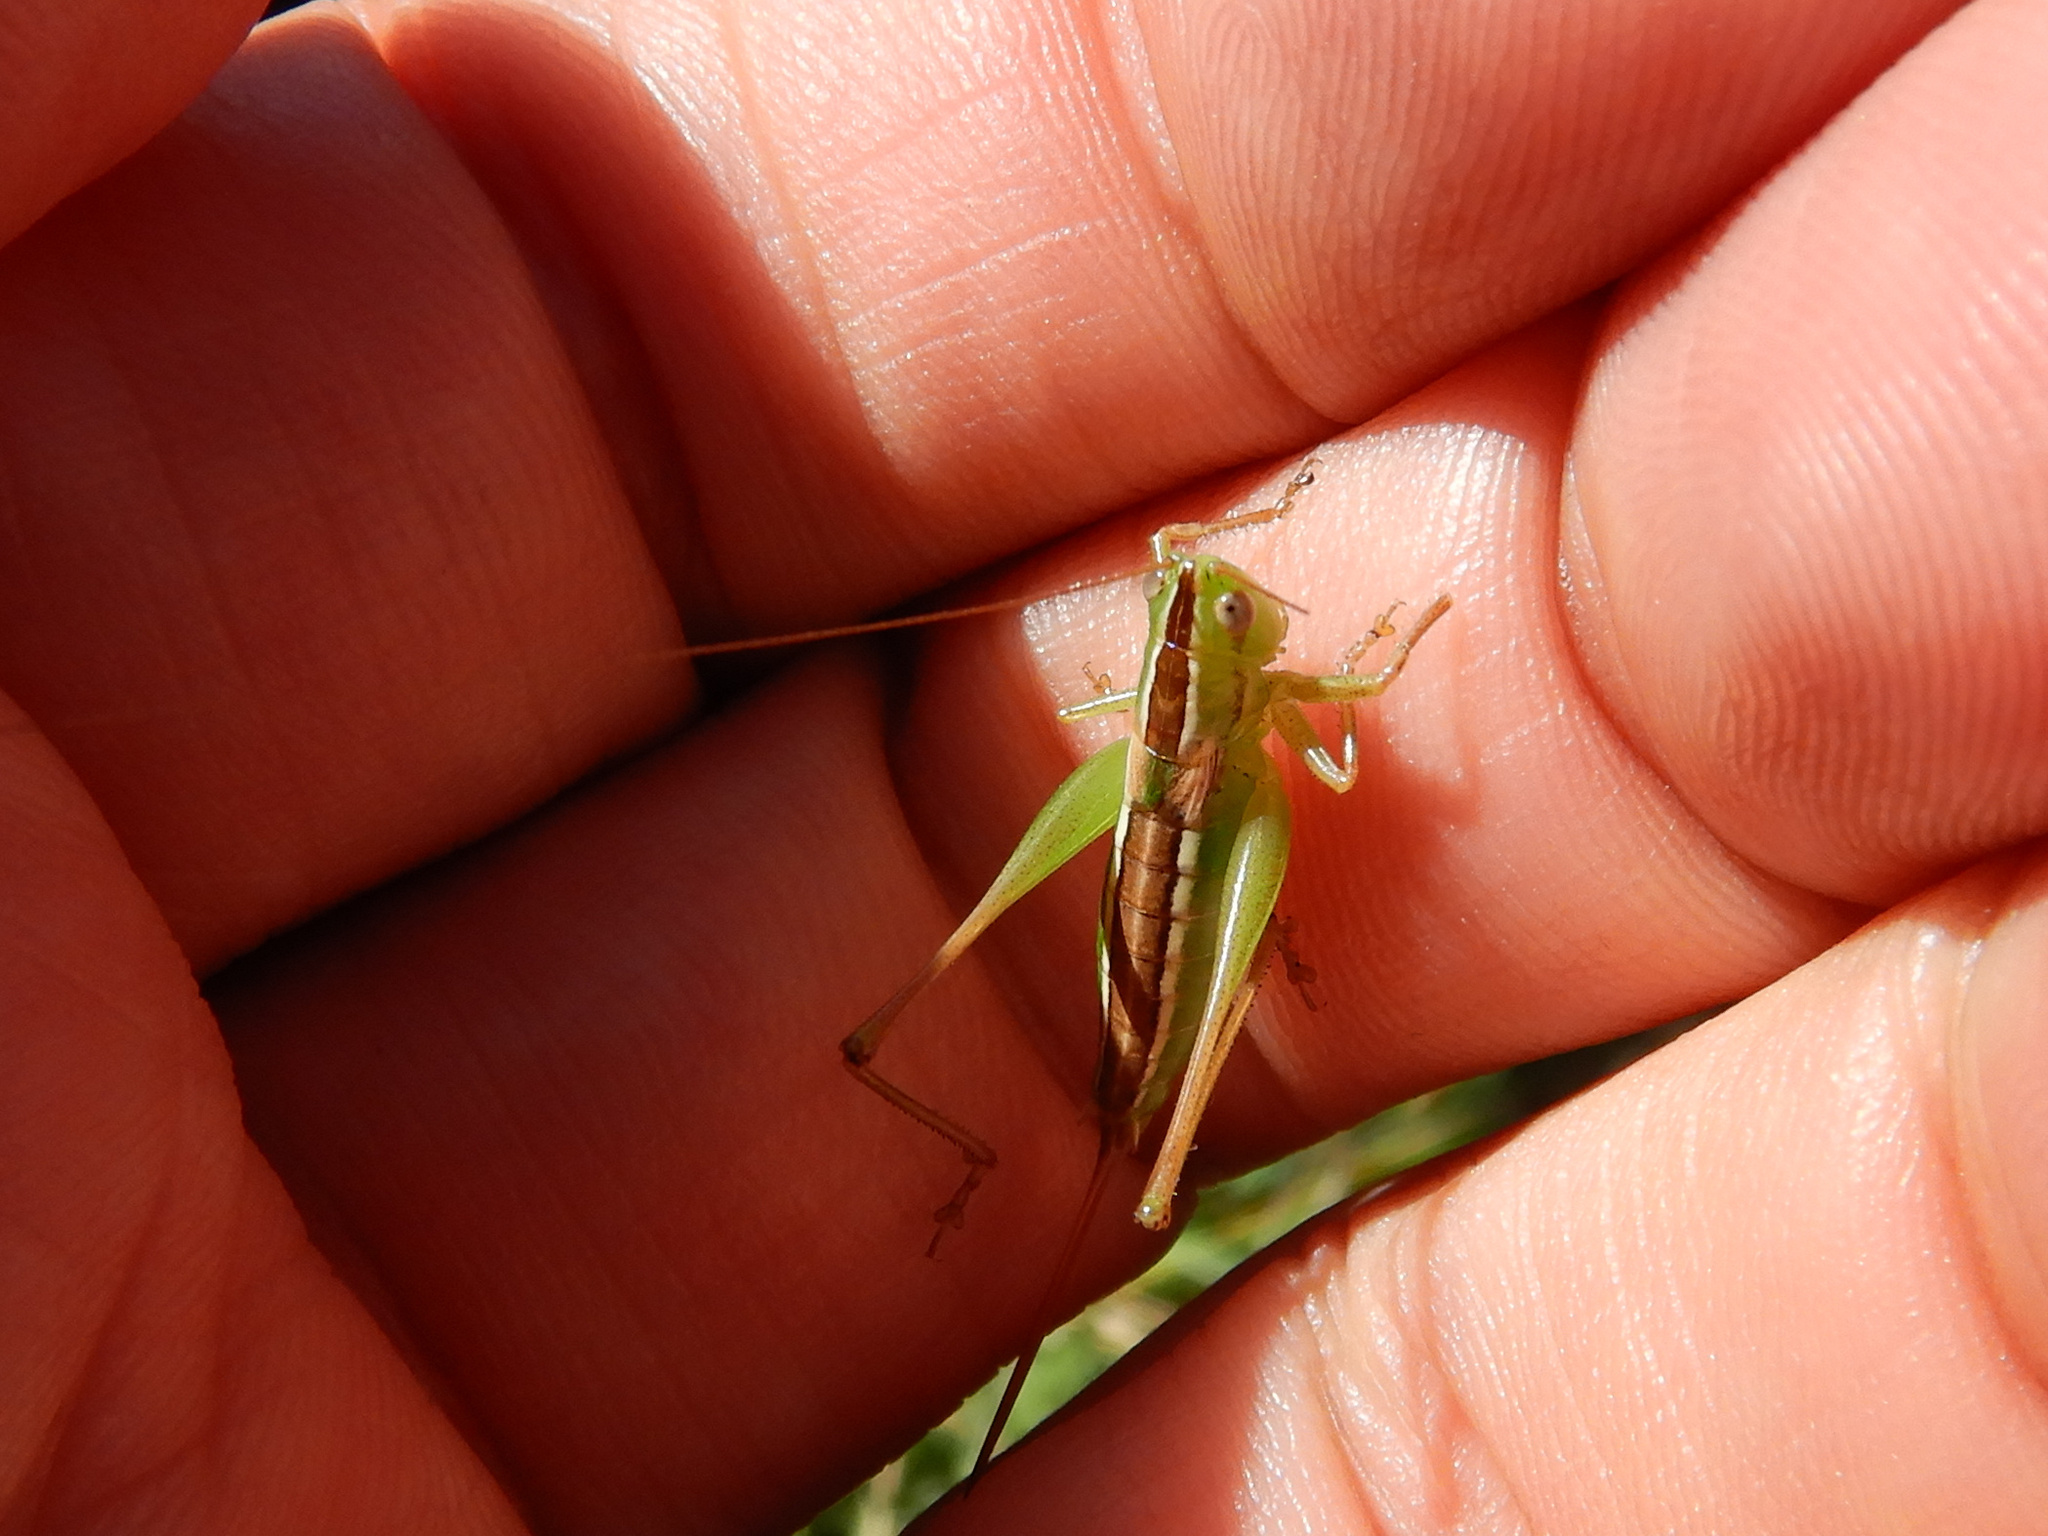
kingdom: Animalia
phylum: Arthropoda
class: Insecta
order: Orthoptera
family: Tettigoniidae
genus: Conocephalus
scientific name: Conocephalus bilineatus
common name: Small meadow katydid
